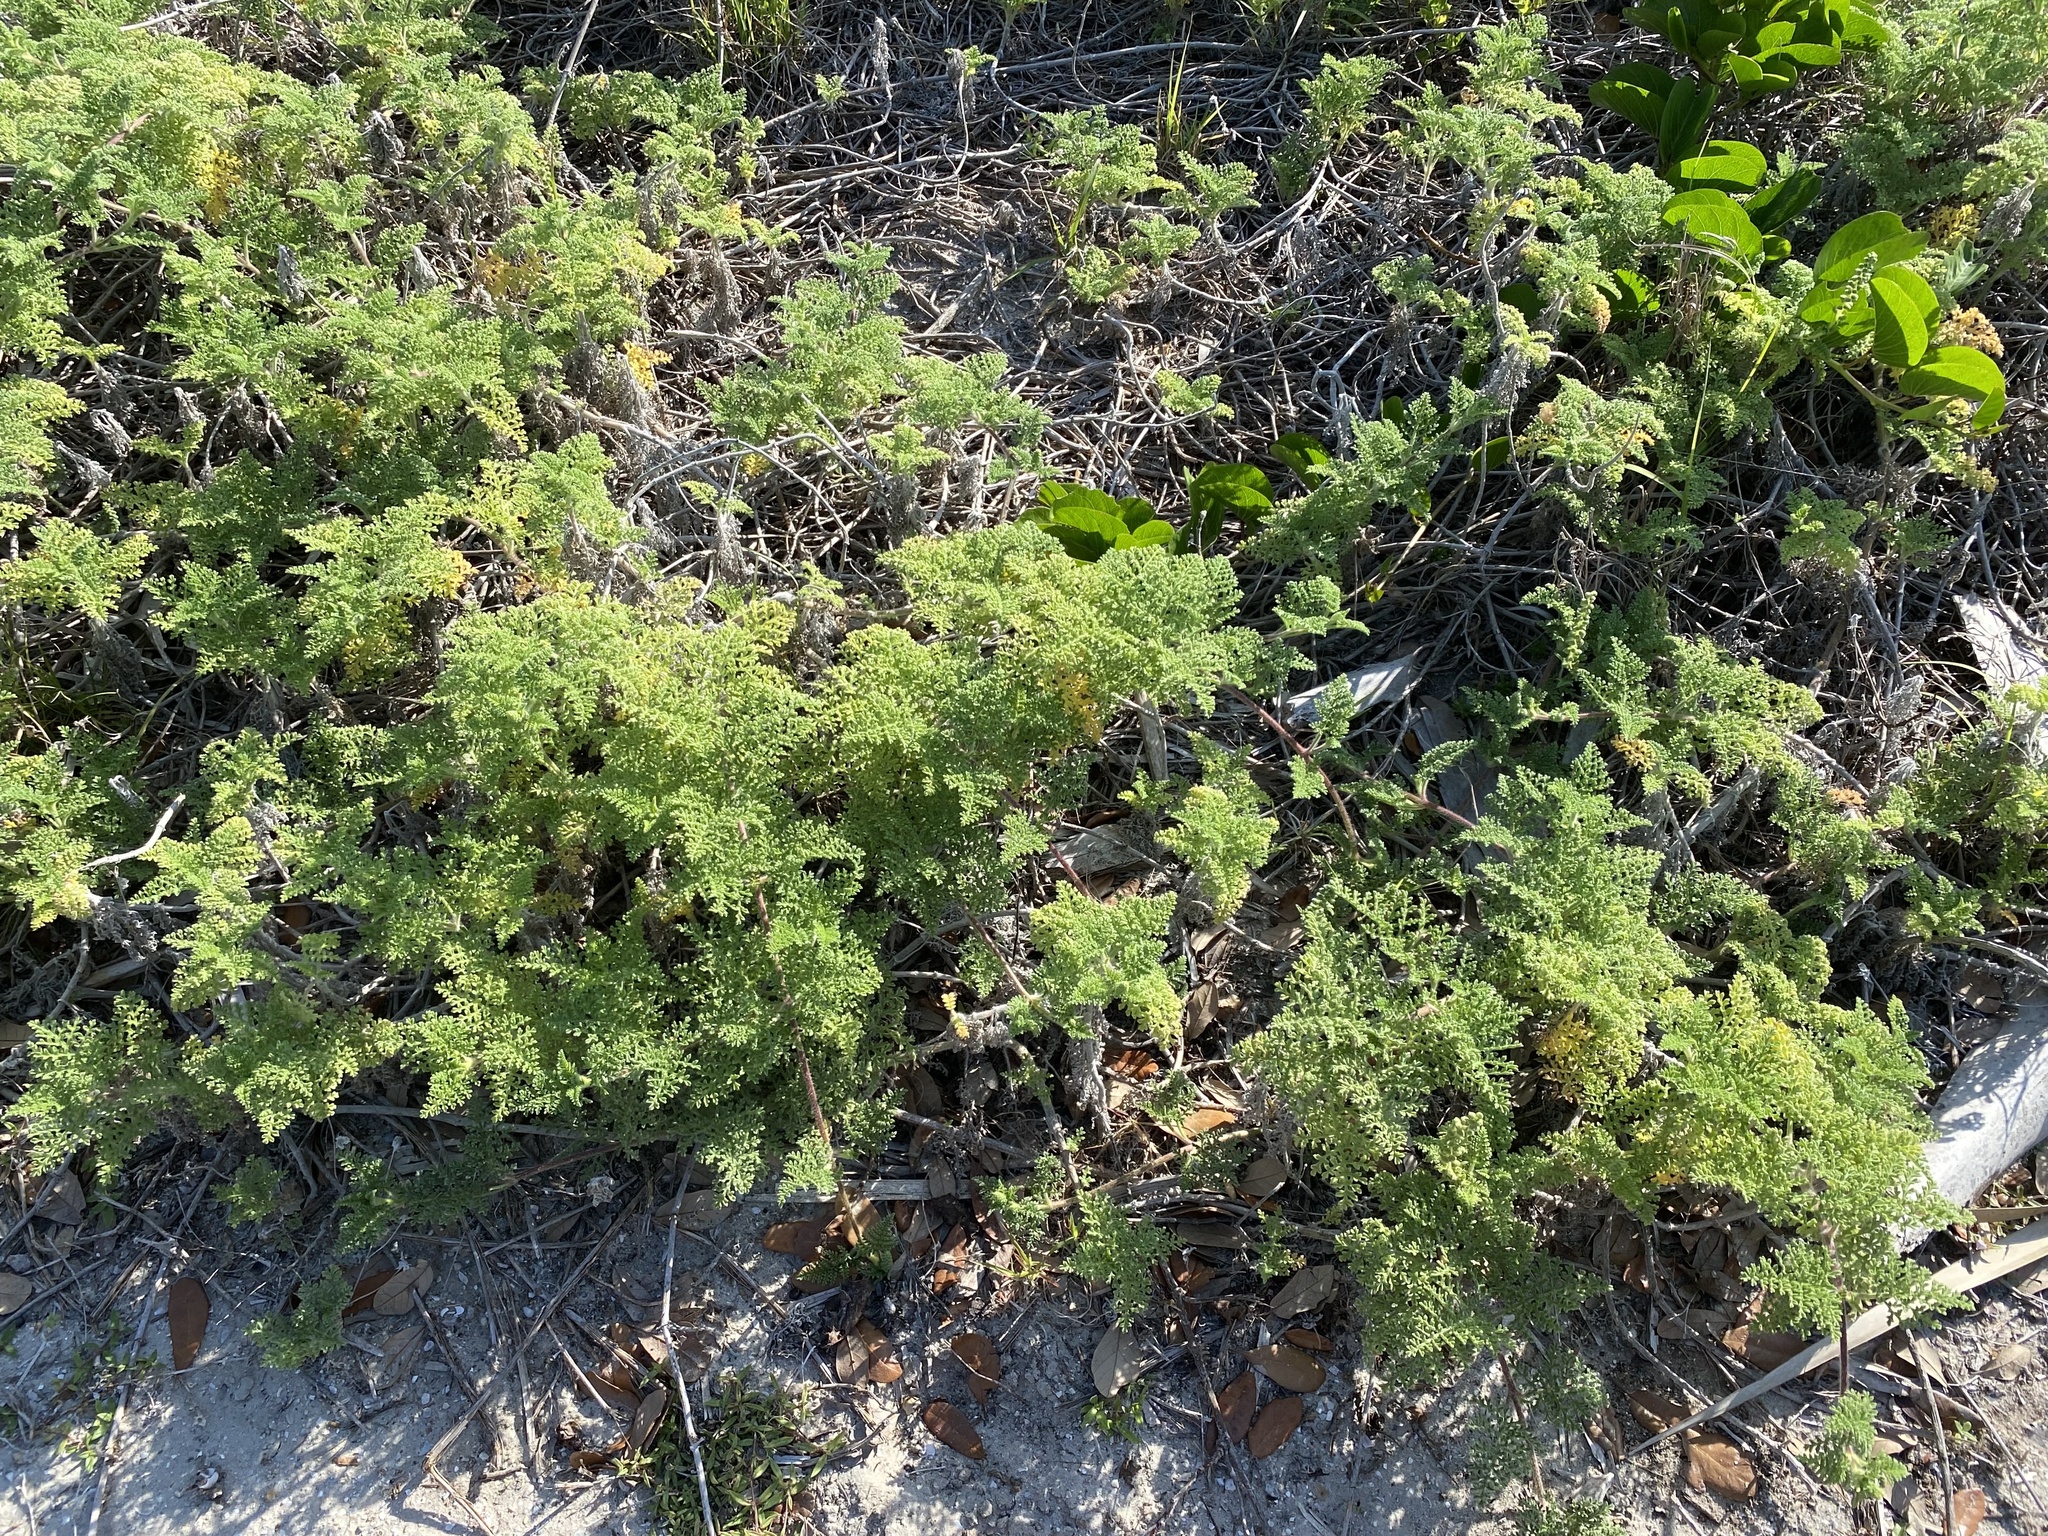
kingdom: Plantae
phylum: Tracheophyta
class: Magnoliopsida
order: Asterales
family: Asteraceae
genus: Ambrosia
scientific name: Ambrosia hispida
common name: Coastal ragweed
